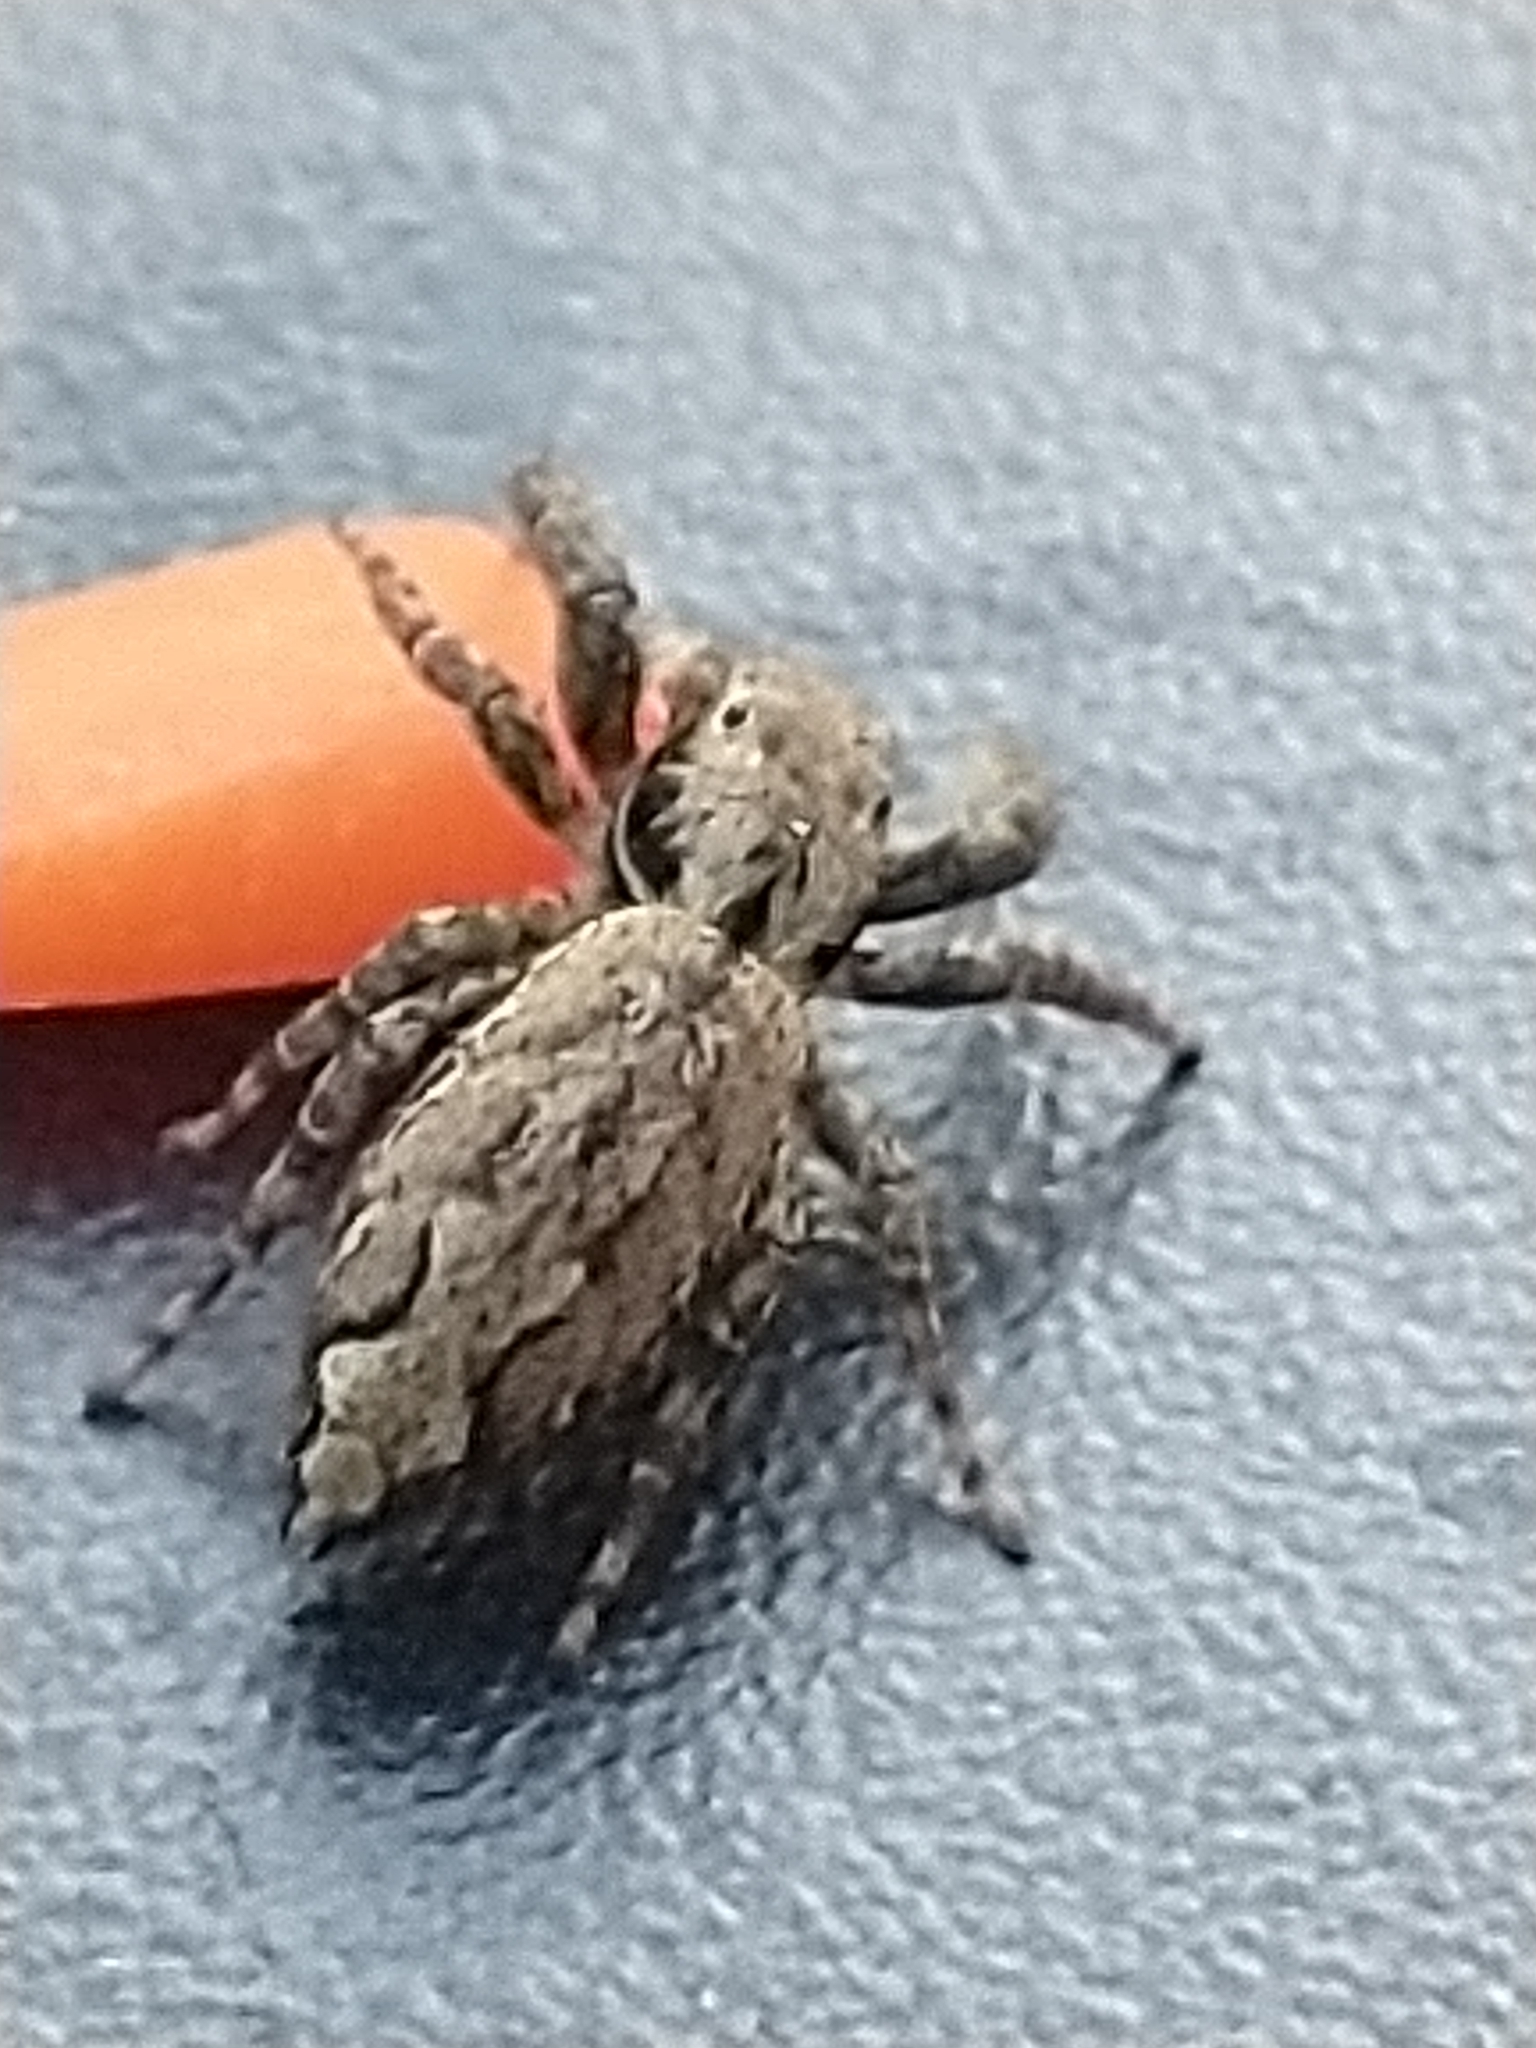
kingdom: Animalia
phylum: Arthropoda
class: Arachnida
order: Araneae
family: Salticidae
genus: Marpissa
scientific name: Marpissa muscosa
